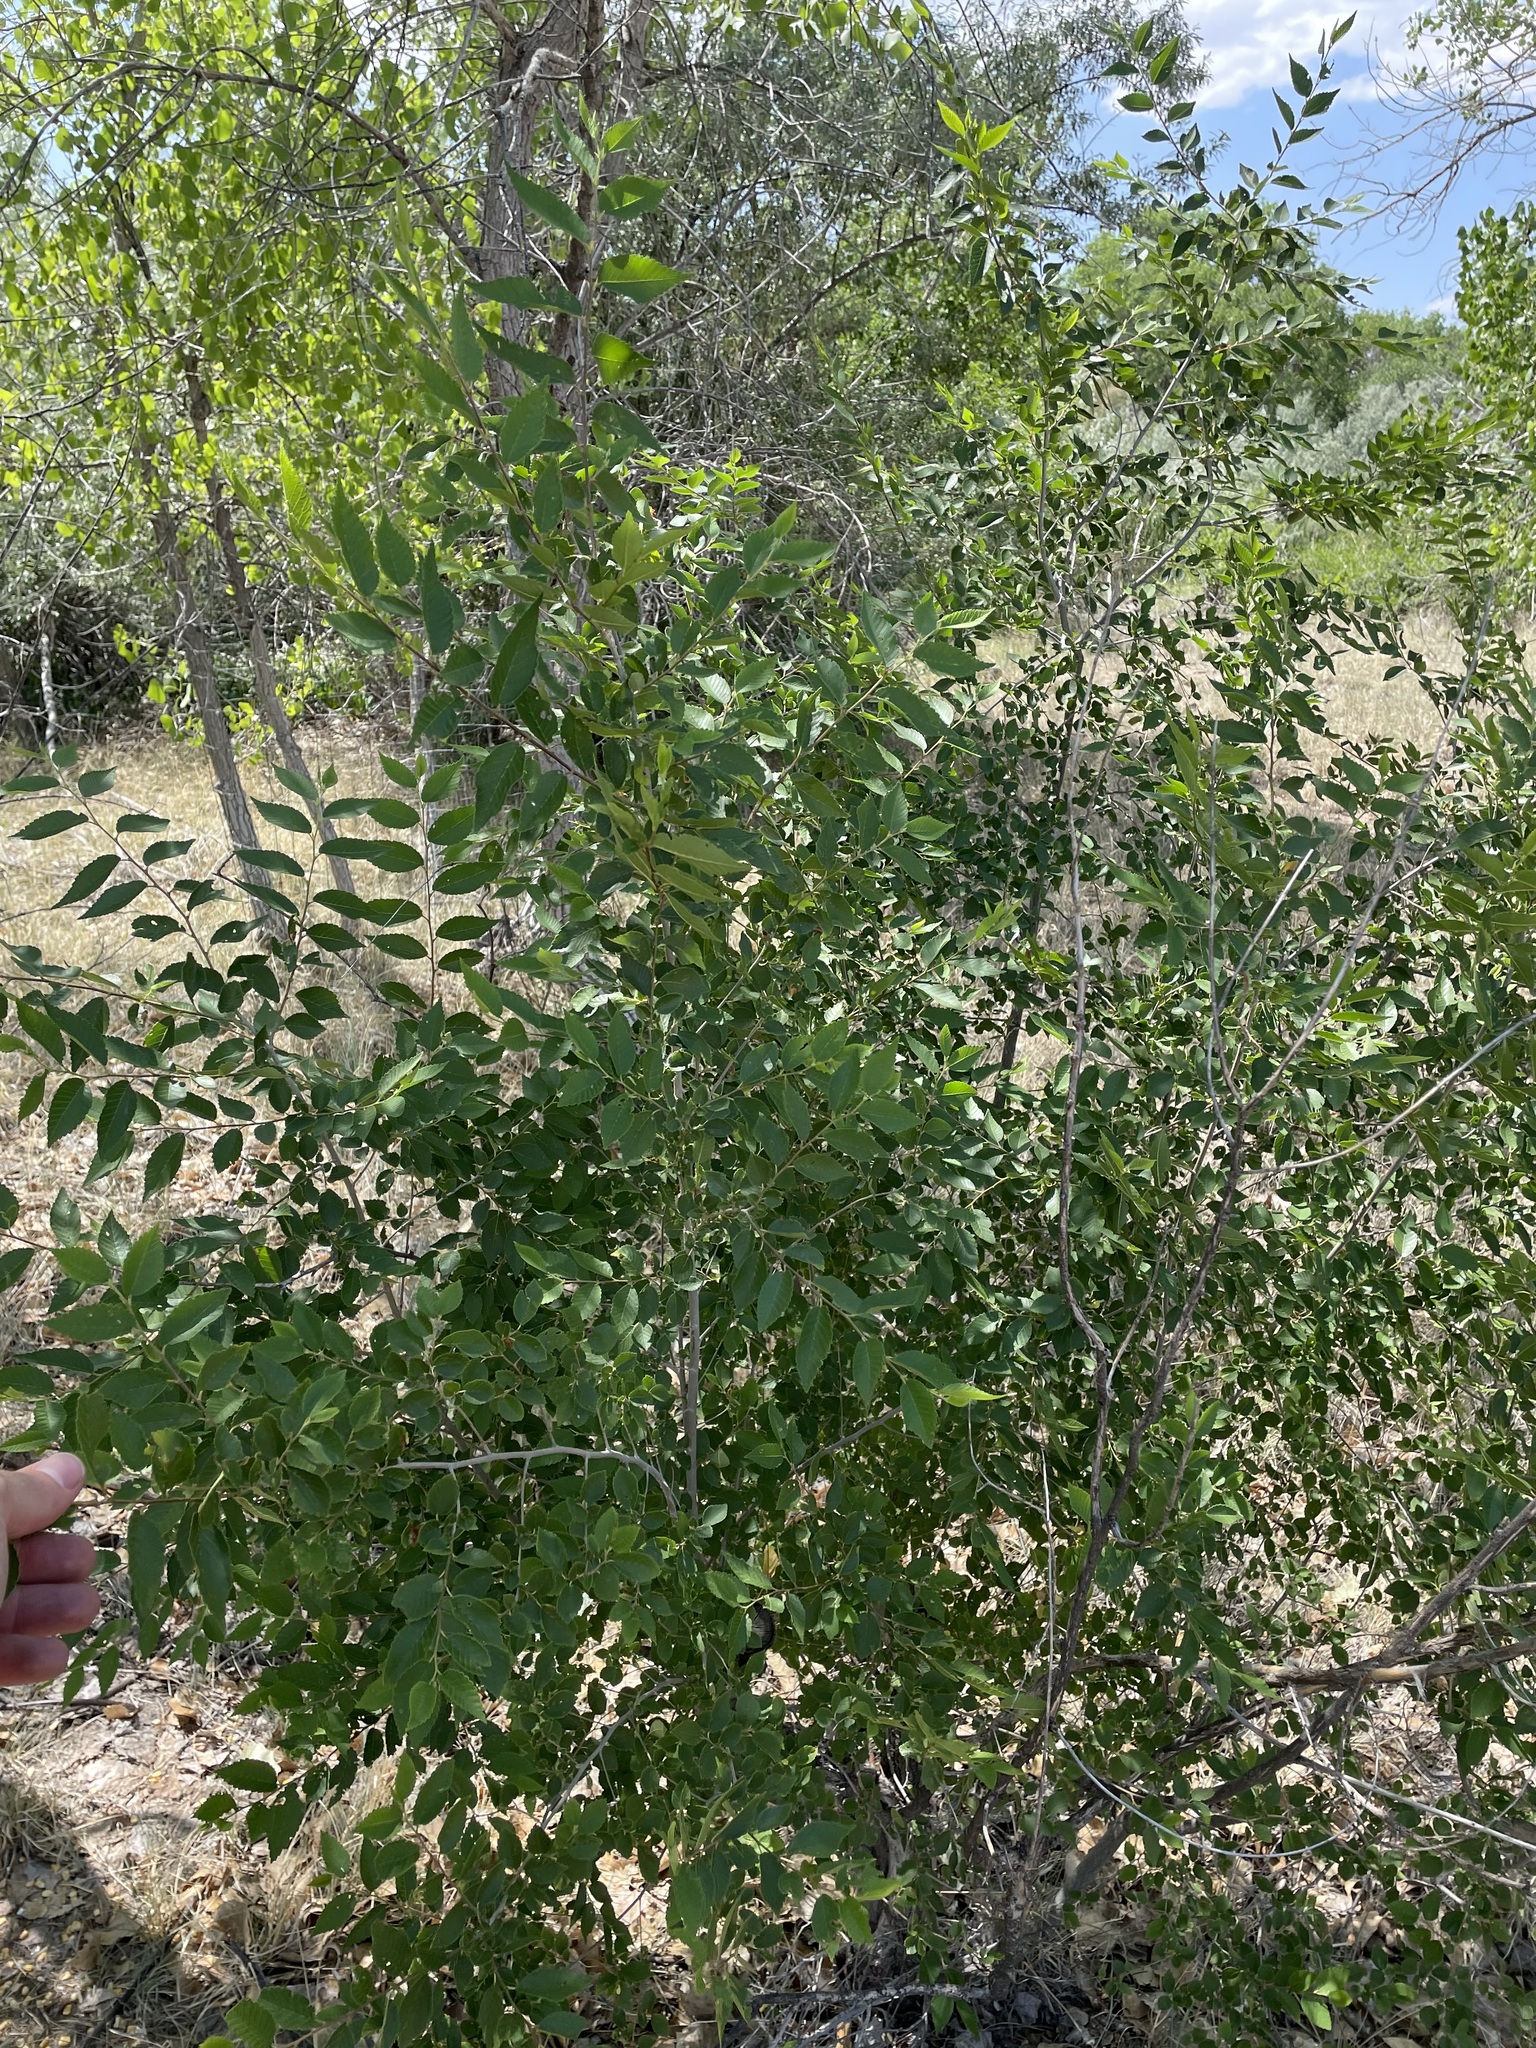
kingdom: Plantae
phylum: Tracheophyta
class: Magnoliopsida
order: Rosales
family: Ulmaceae
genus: Ulmus
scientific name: Ulmus pumila
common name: Siberian elm
